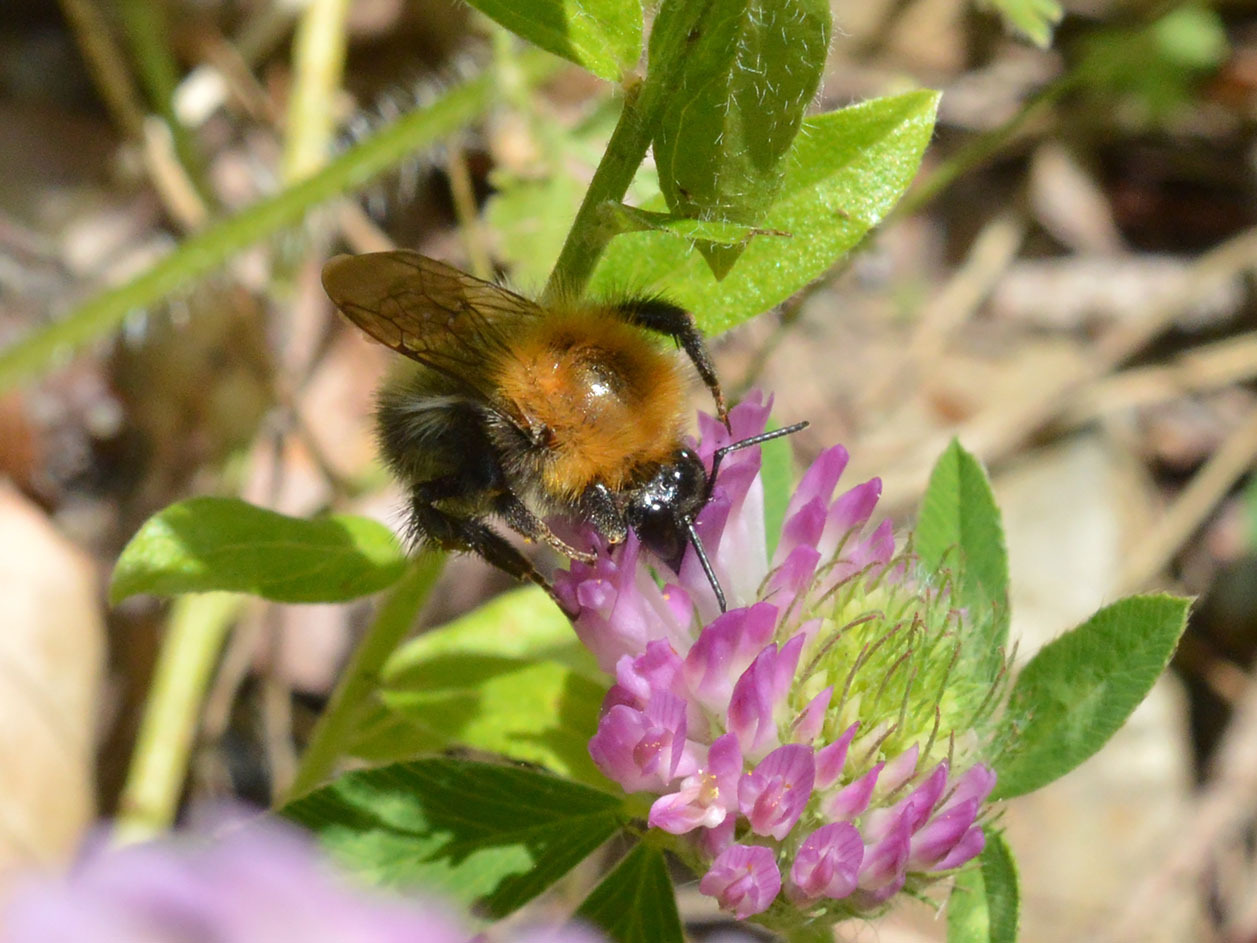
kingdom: Animalia
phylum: Arthropoda
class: Insecta
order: Hymenoptera
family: Apidae
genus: Bombus
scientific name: Bombus pascuorum
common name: Common carder bee
